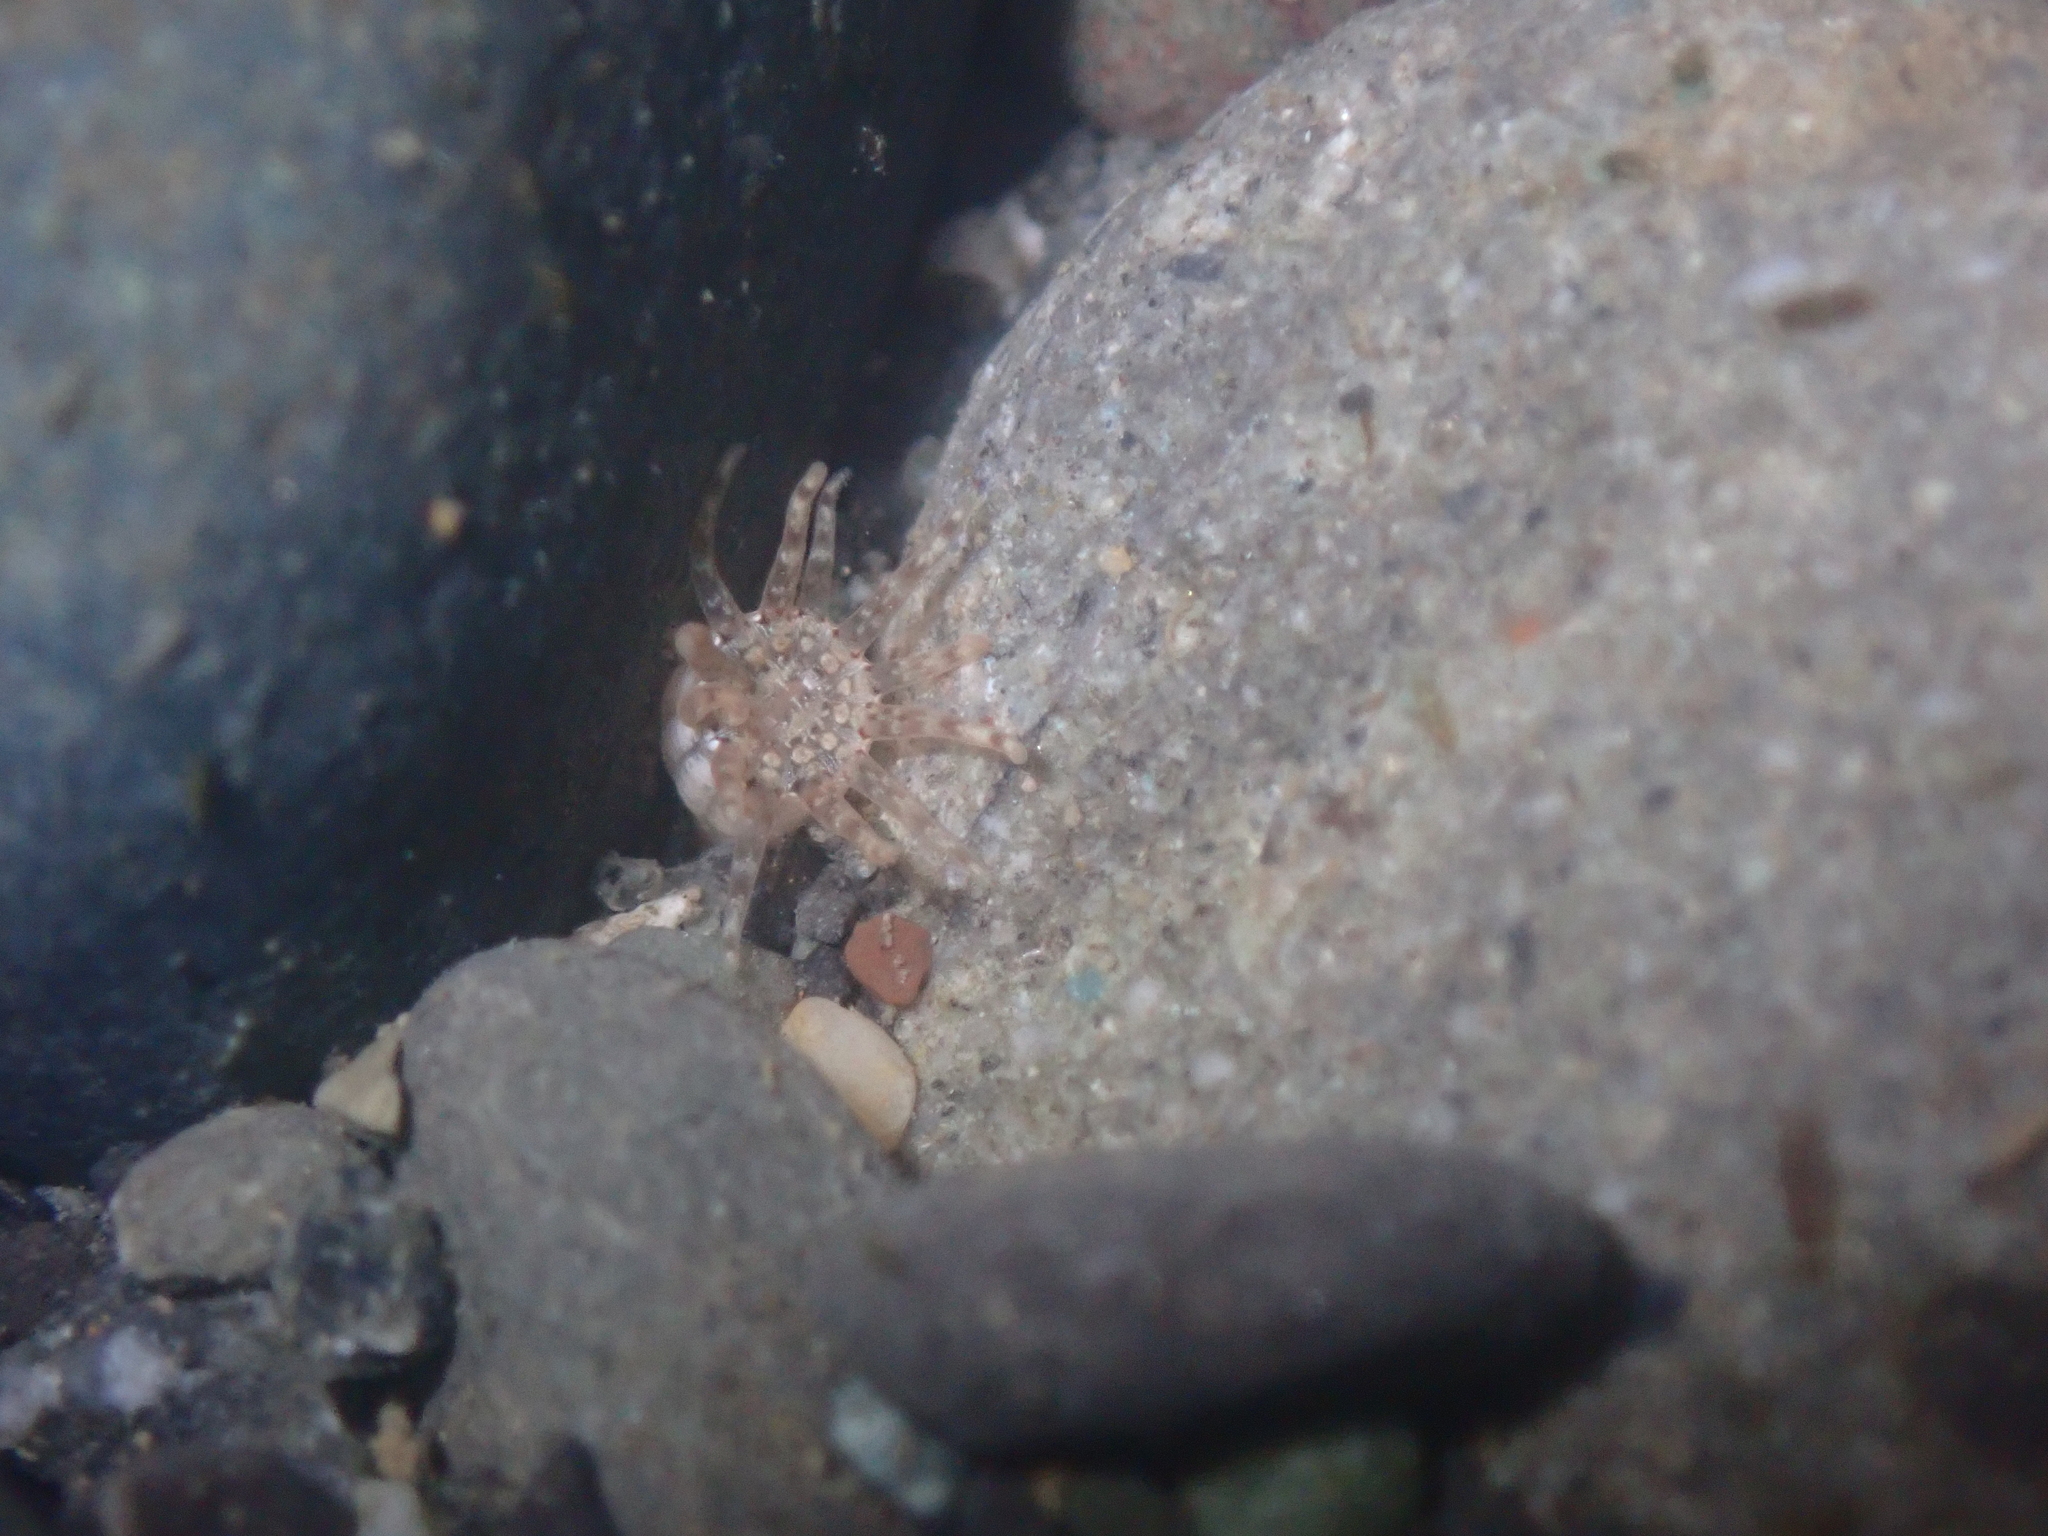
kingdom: Animalia
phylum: Cnidaria
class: Anthozoa
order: Actiniaria
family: Halcampidae
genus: Halcampa
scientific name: Halcampa crypta
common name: Cryptic burrowing anemone
